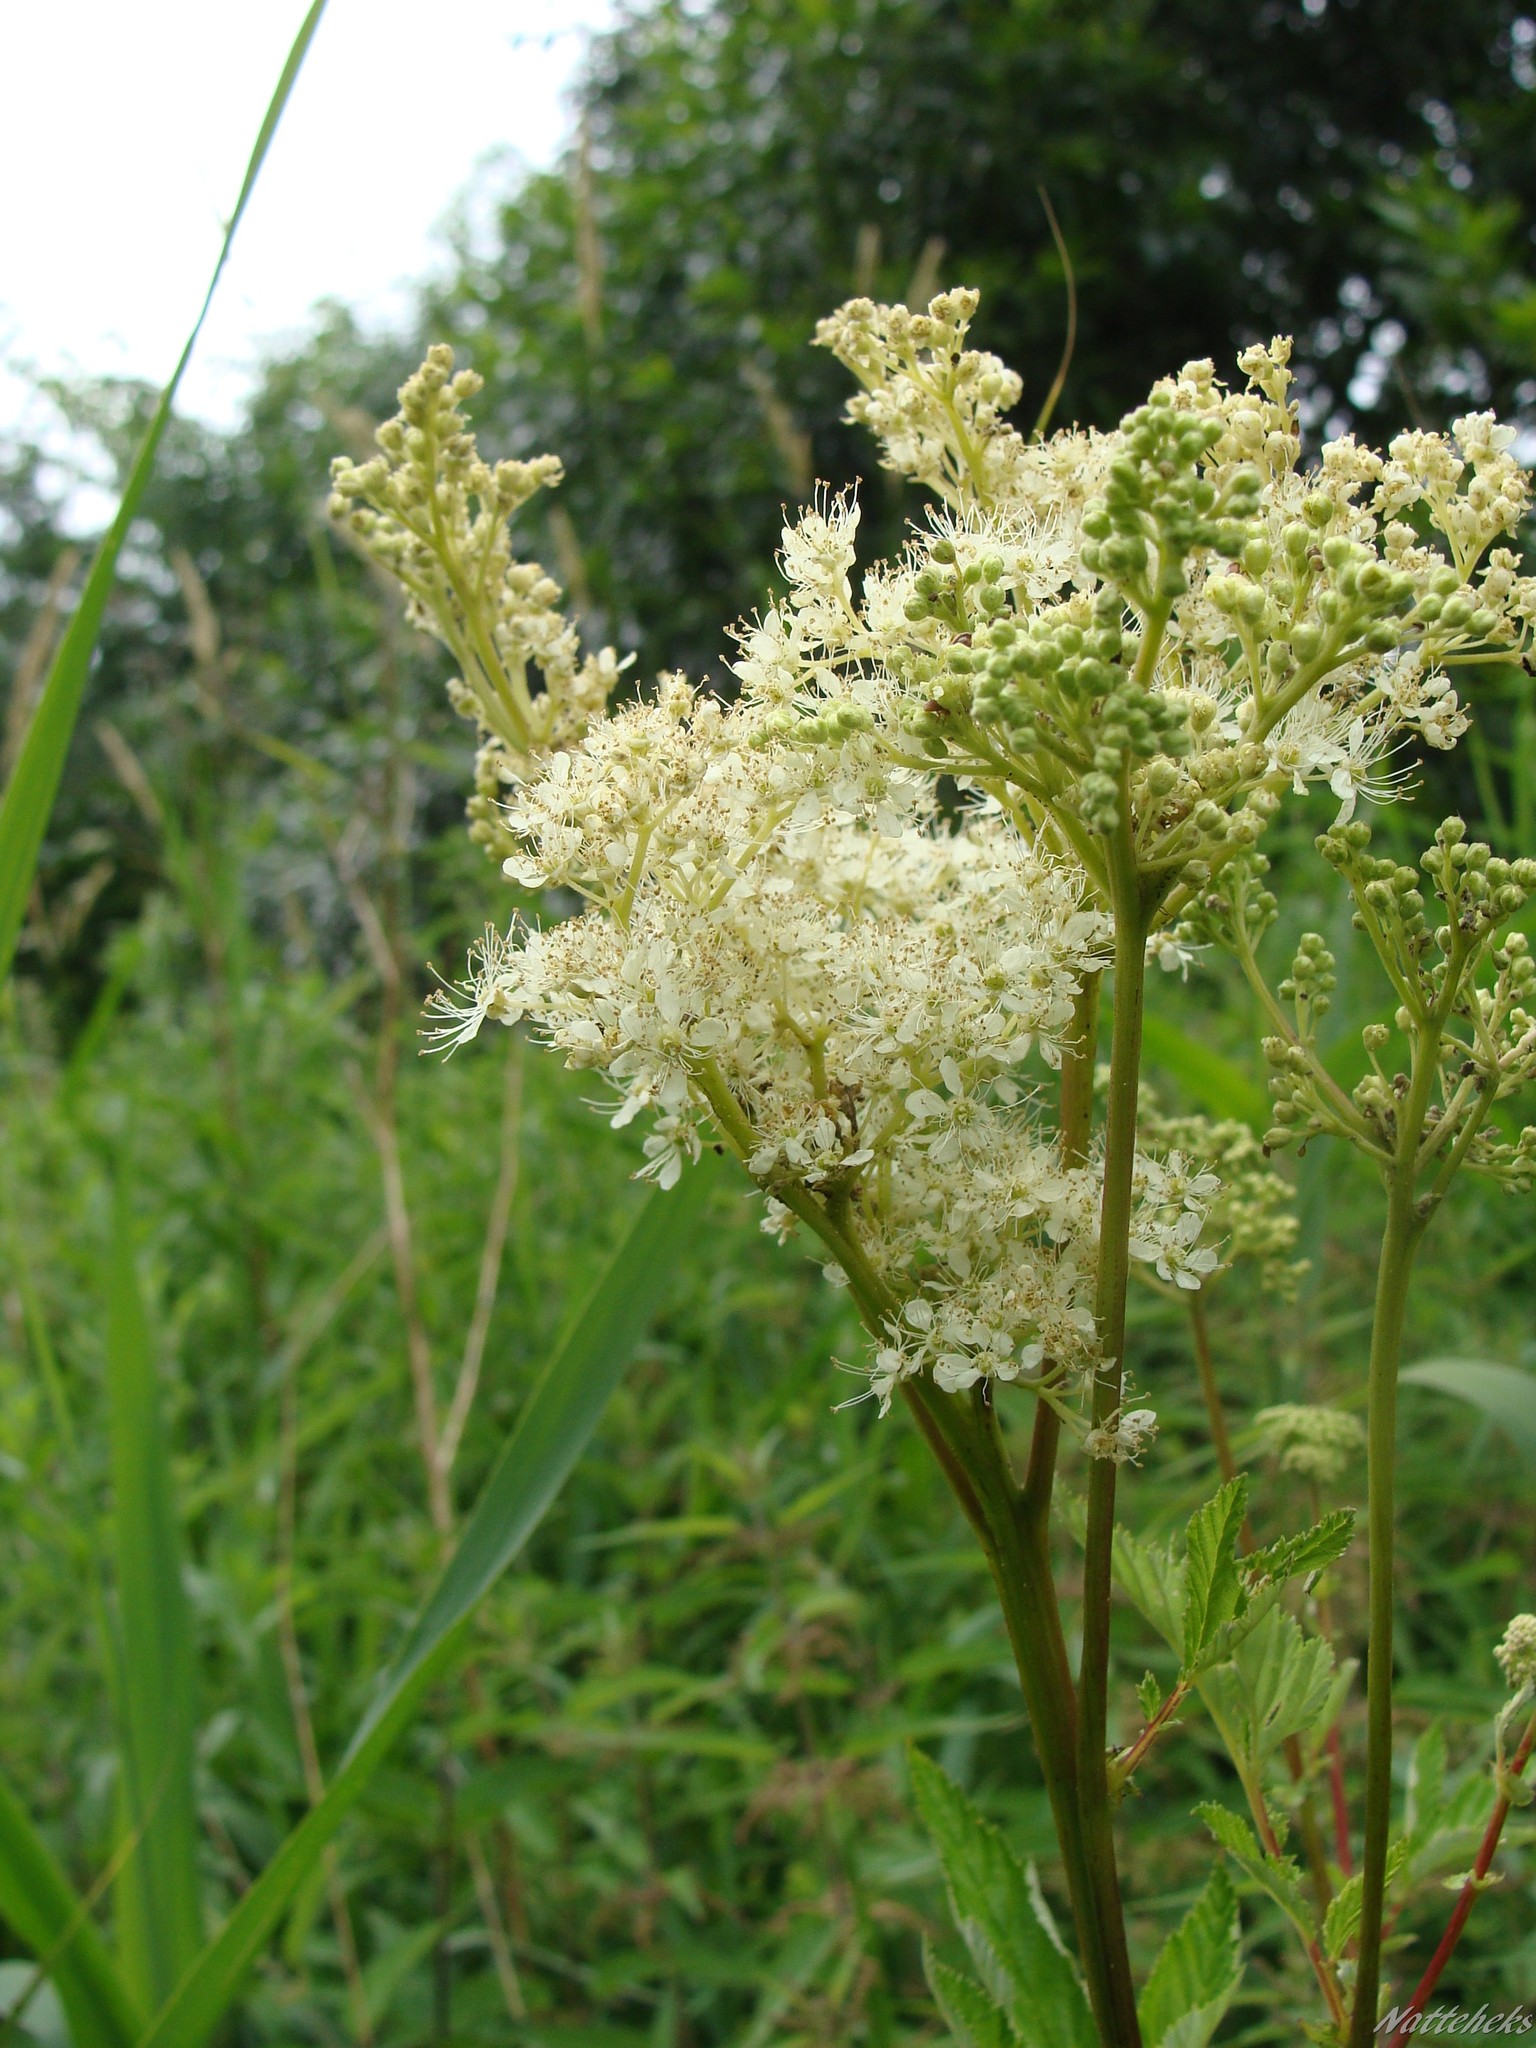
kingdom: Plantae
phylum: Tracheophyta
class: Magnoliopsida
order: Rosales
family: Rosaceae
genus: Filipendula
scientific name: Filipendula ulmaria
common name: Meadowsweet
